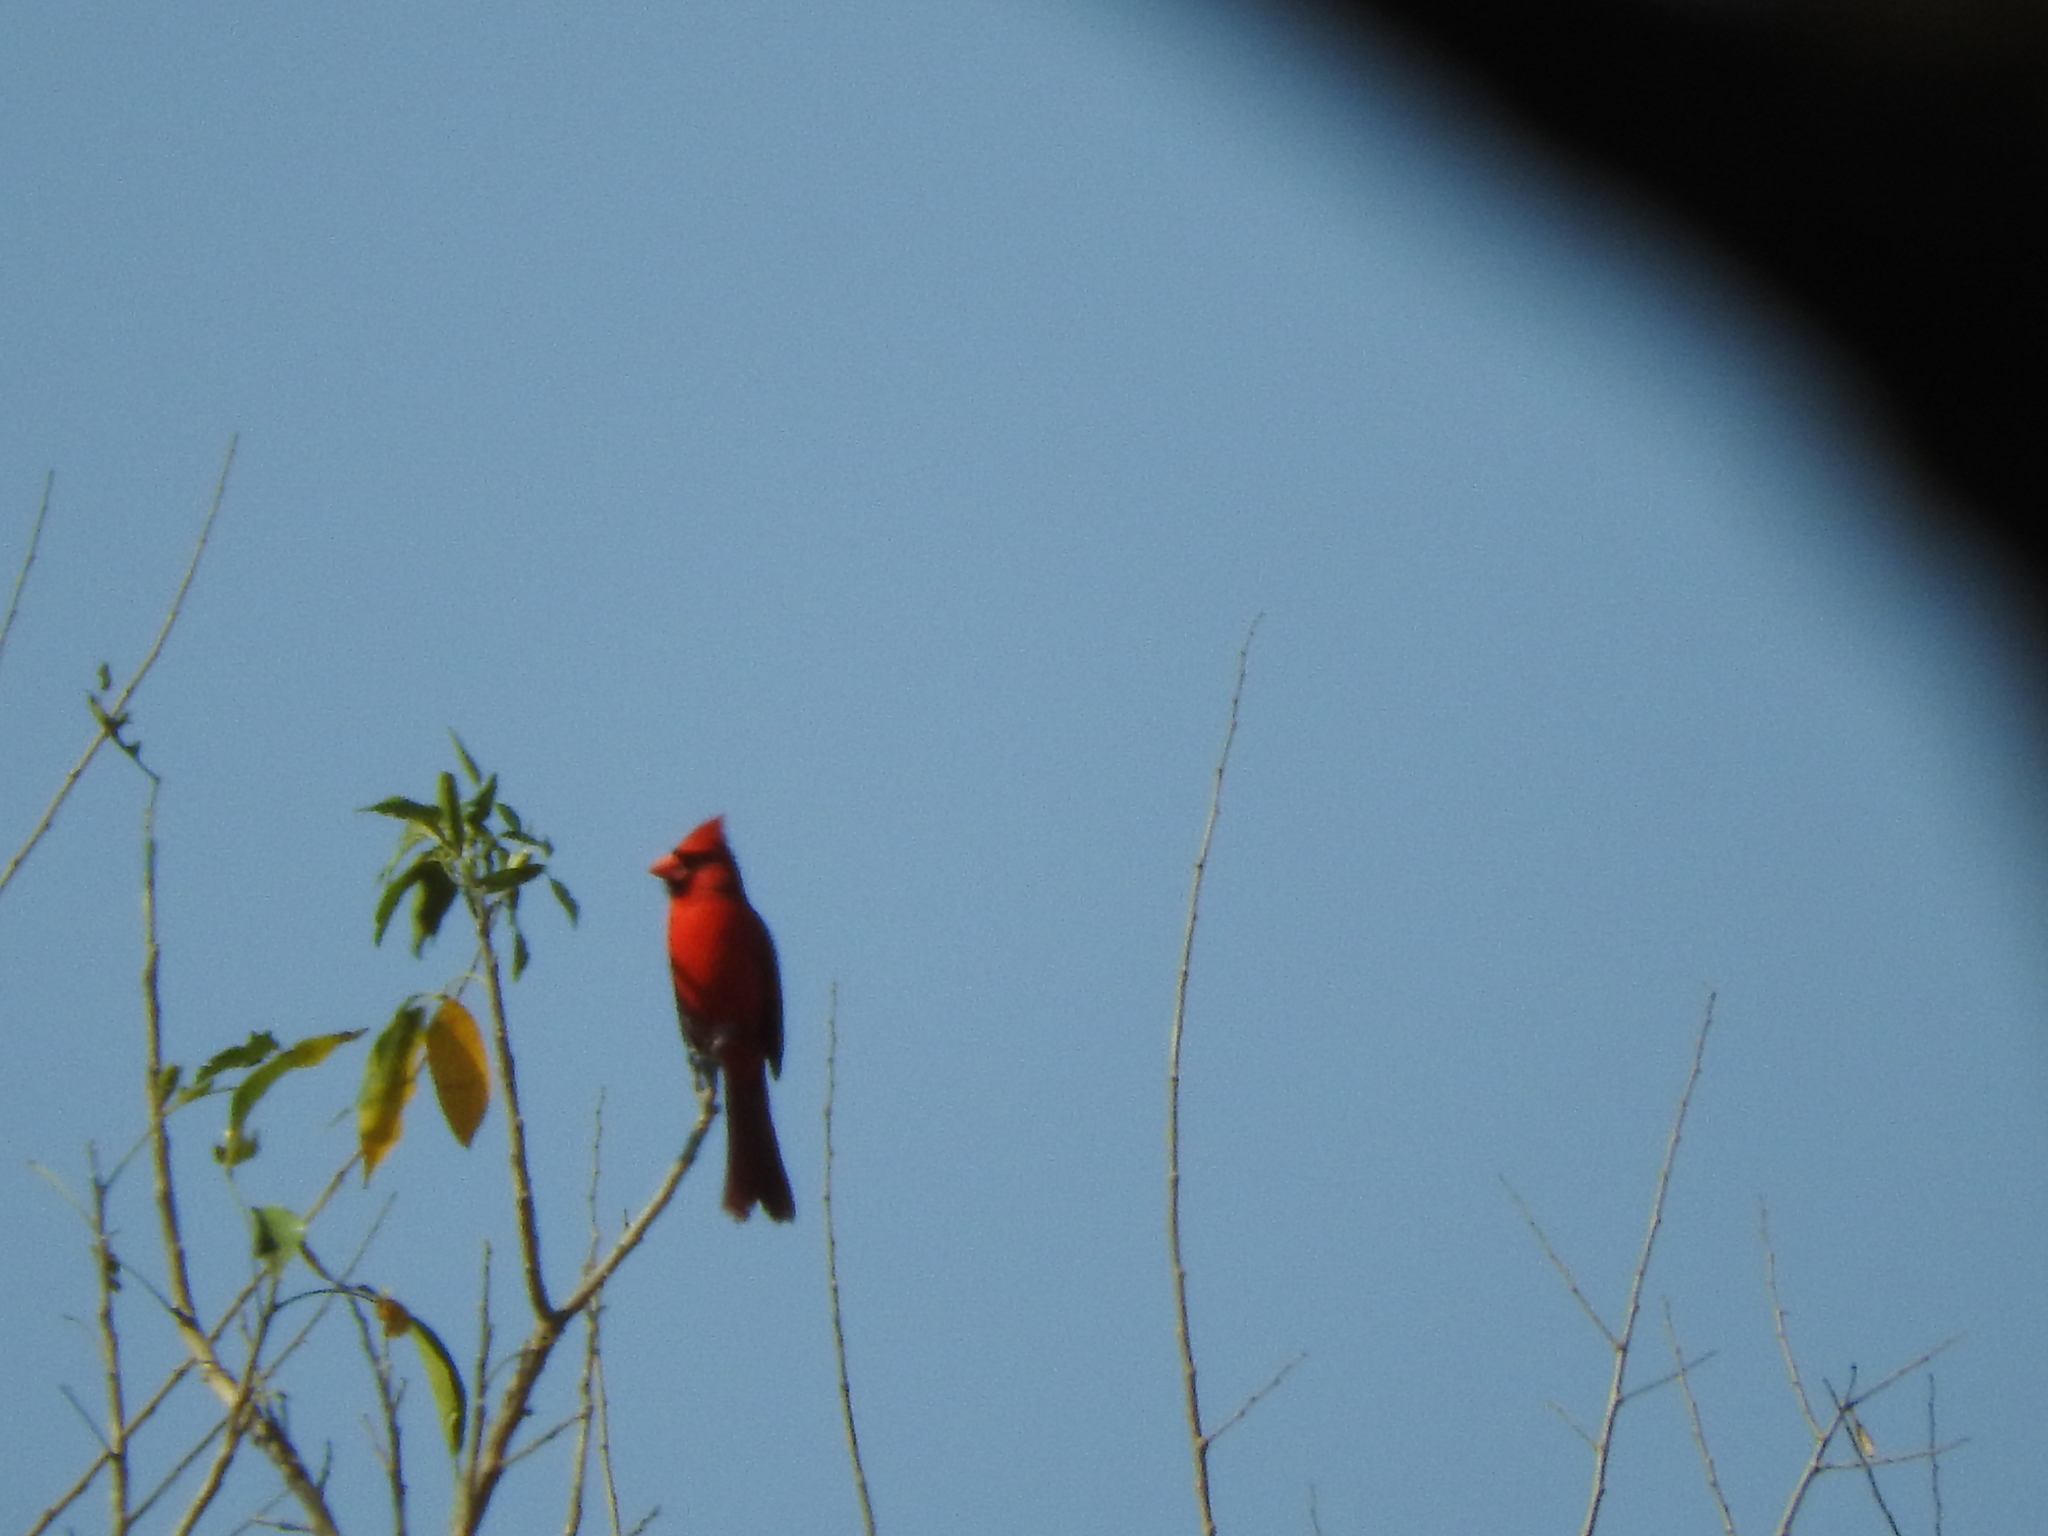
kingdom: Animalia
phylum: Chordata
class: Aves
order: Passeriformes
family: Cardinalidae
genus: Cardinalis
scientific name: Cardinalis cardinalis
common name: Northern cardinal
